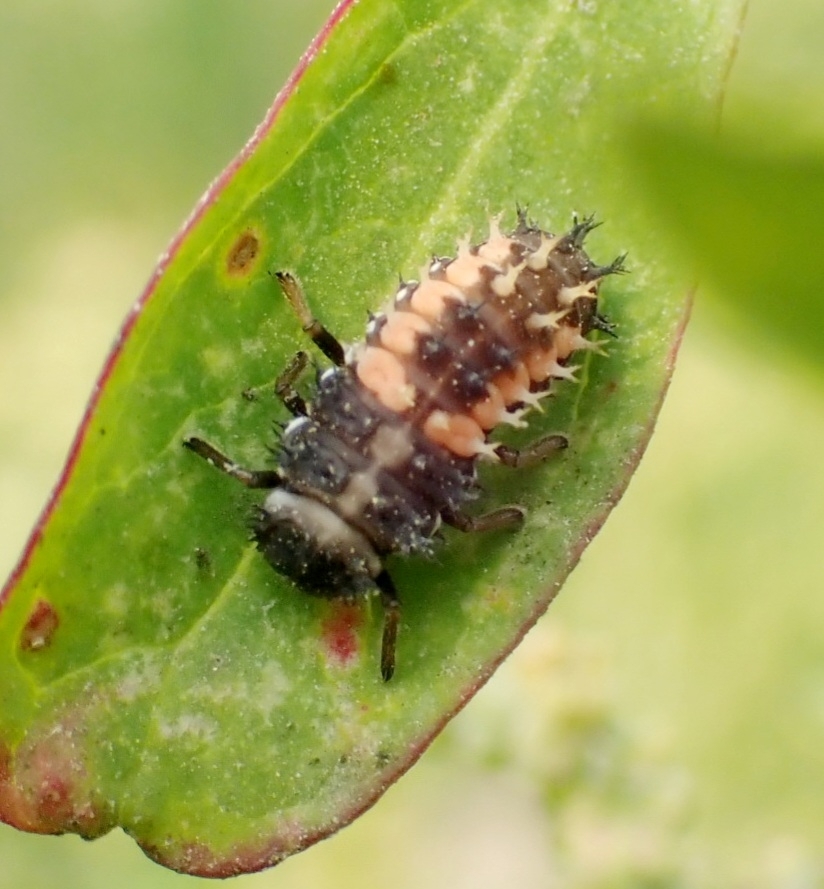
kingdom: Animalia
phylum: Arthropoda
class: Insecta
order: Coleoptera
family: Coccinellidae
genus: Harmonia
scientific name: Harmonia axyridis
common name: Harlequin ladybird
